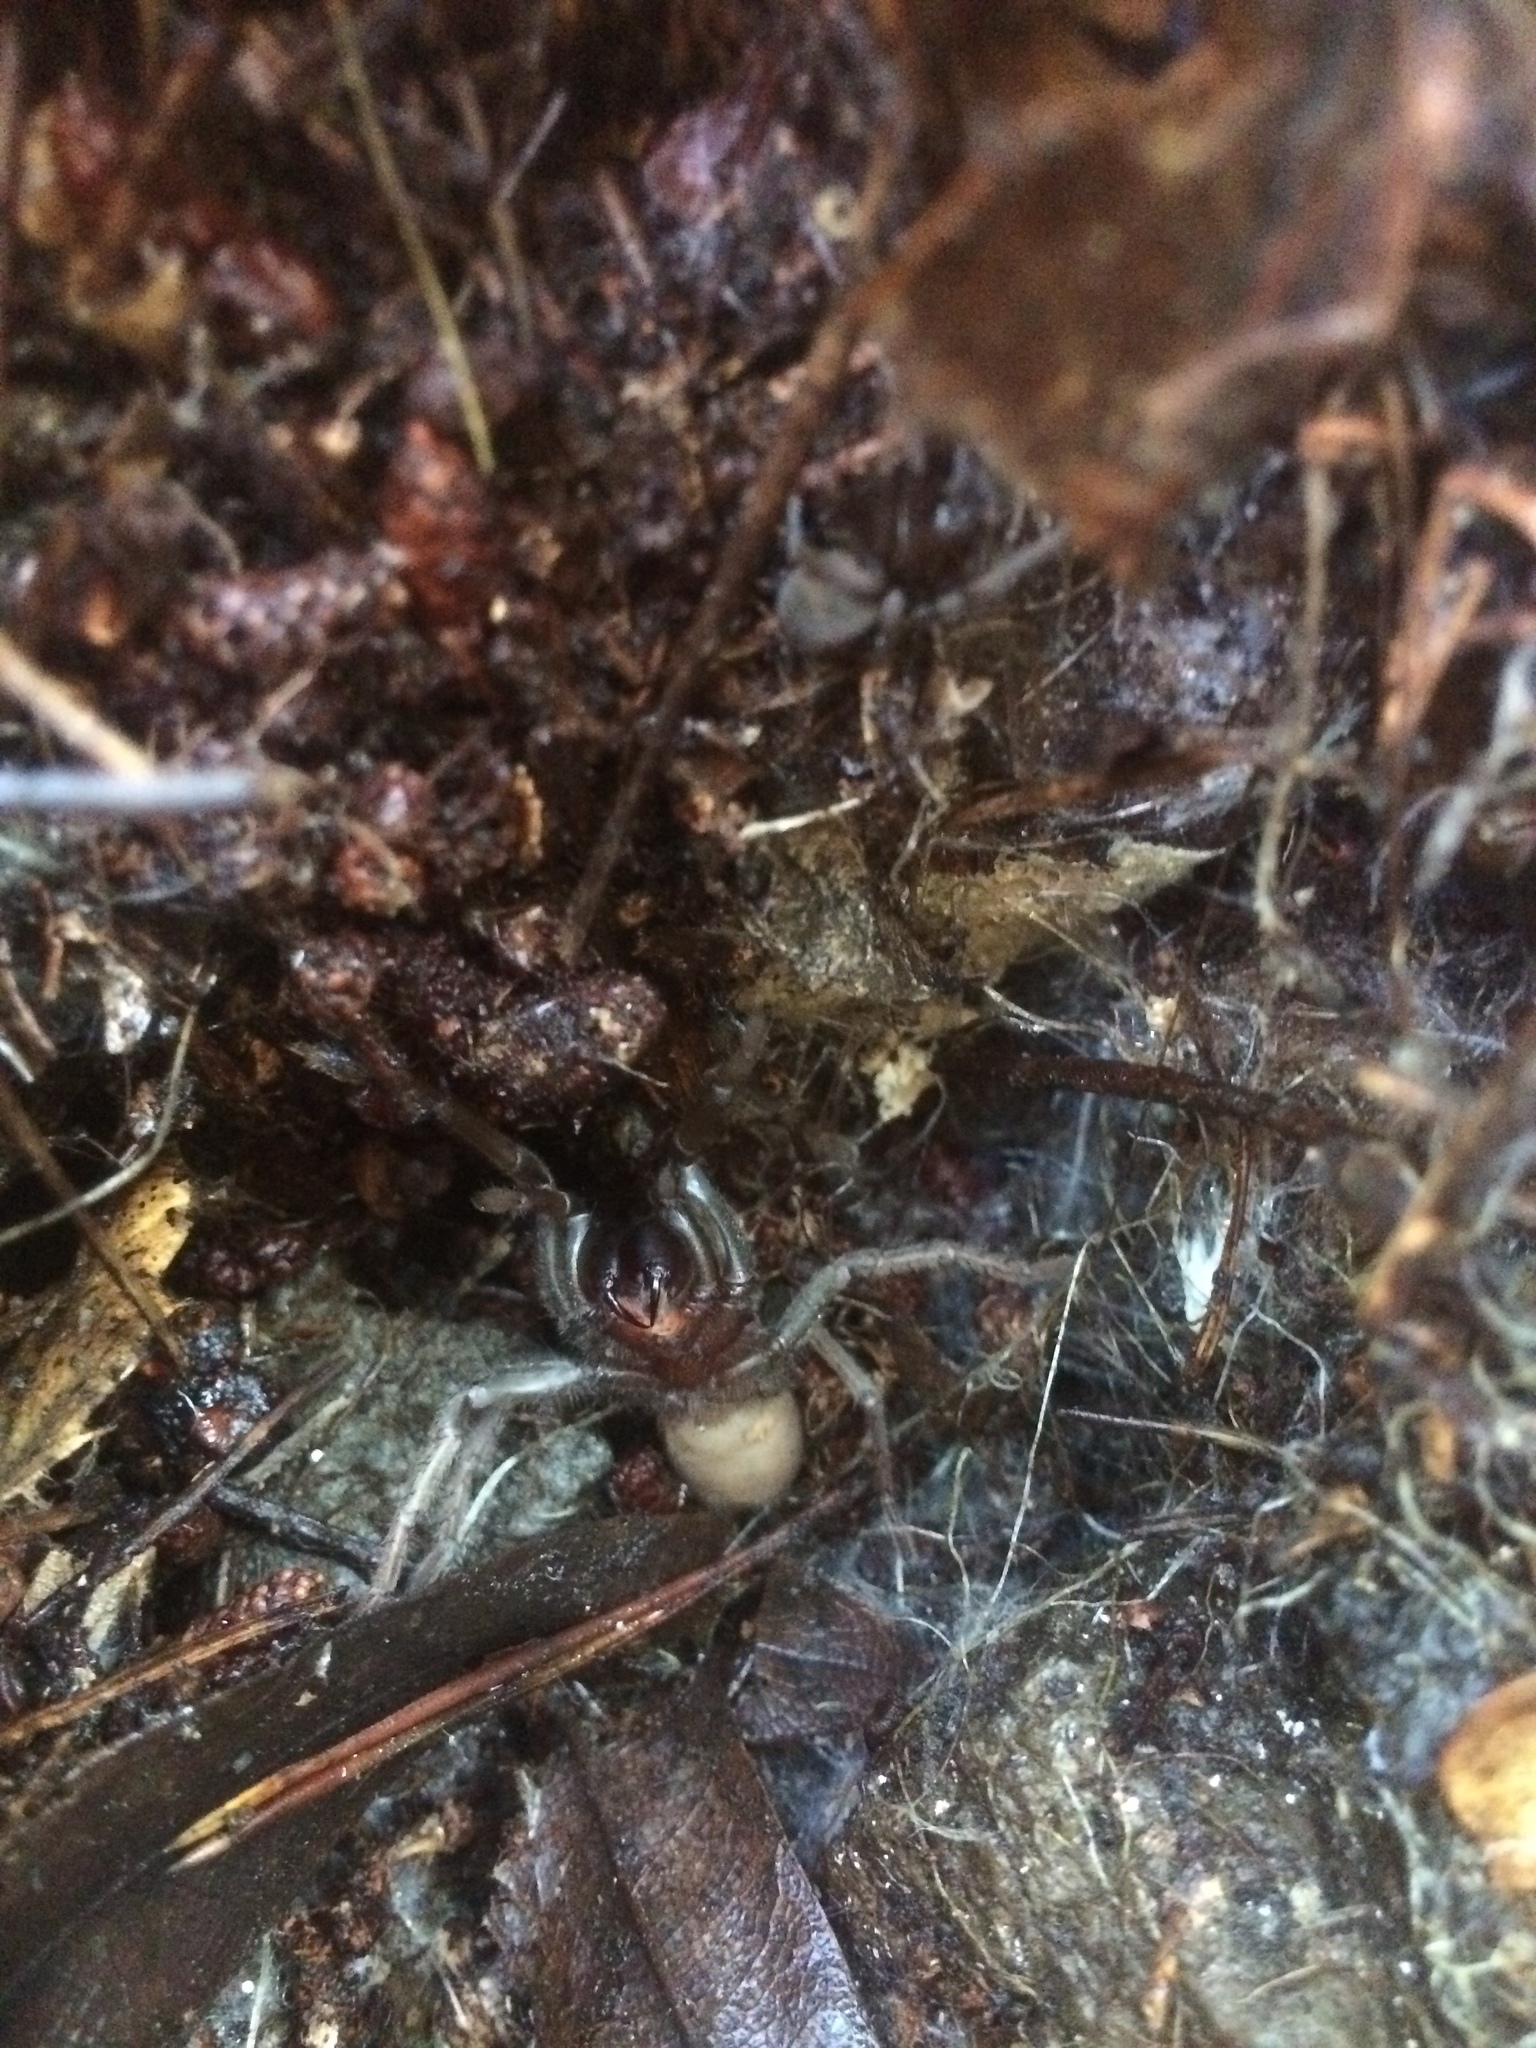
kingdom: Animalia
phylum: Arthropoda
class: Arachnida
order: Araneae
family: Nemesiidae
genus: Calisoga
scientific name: Calisoga longitarsis
